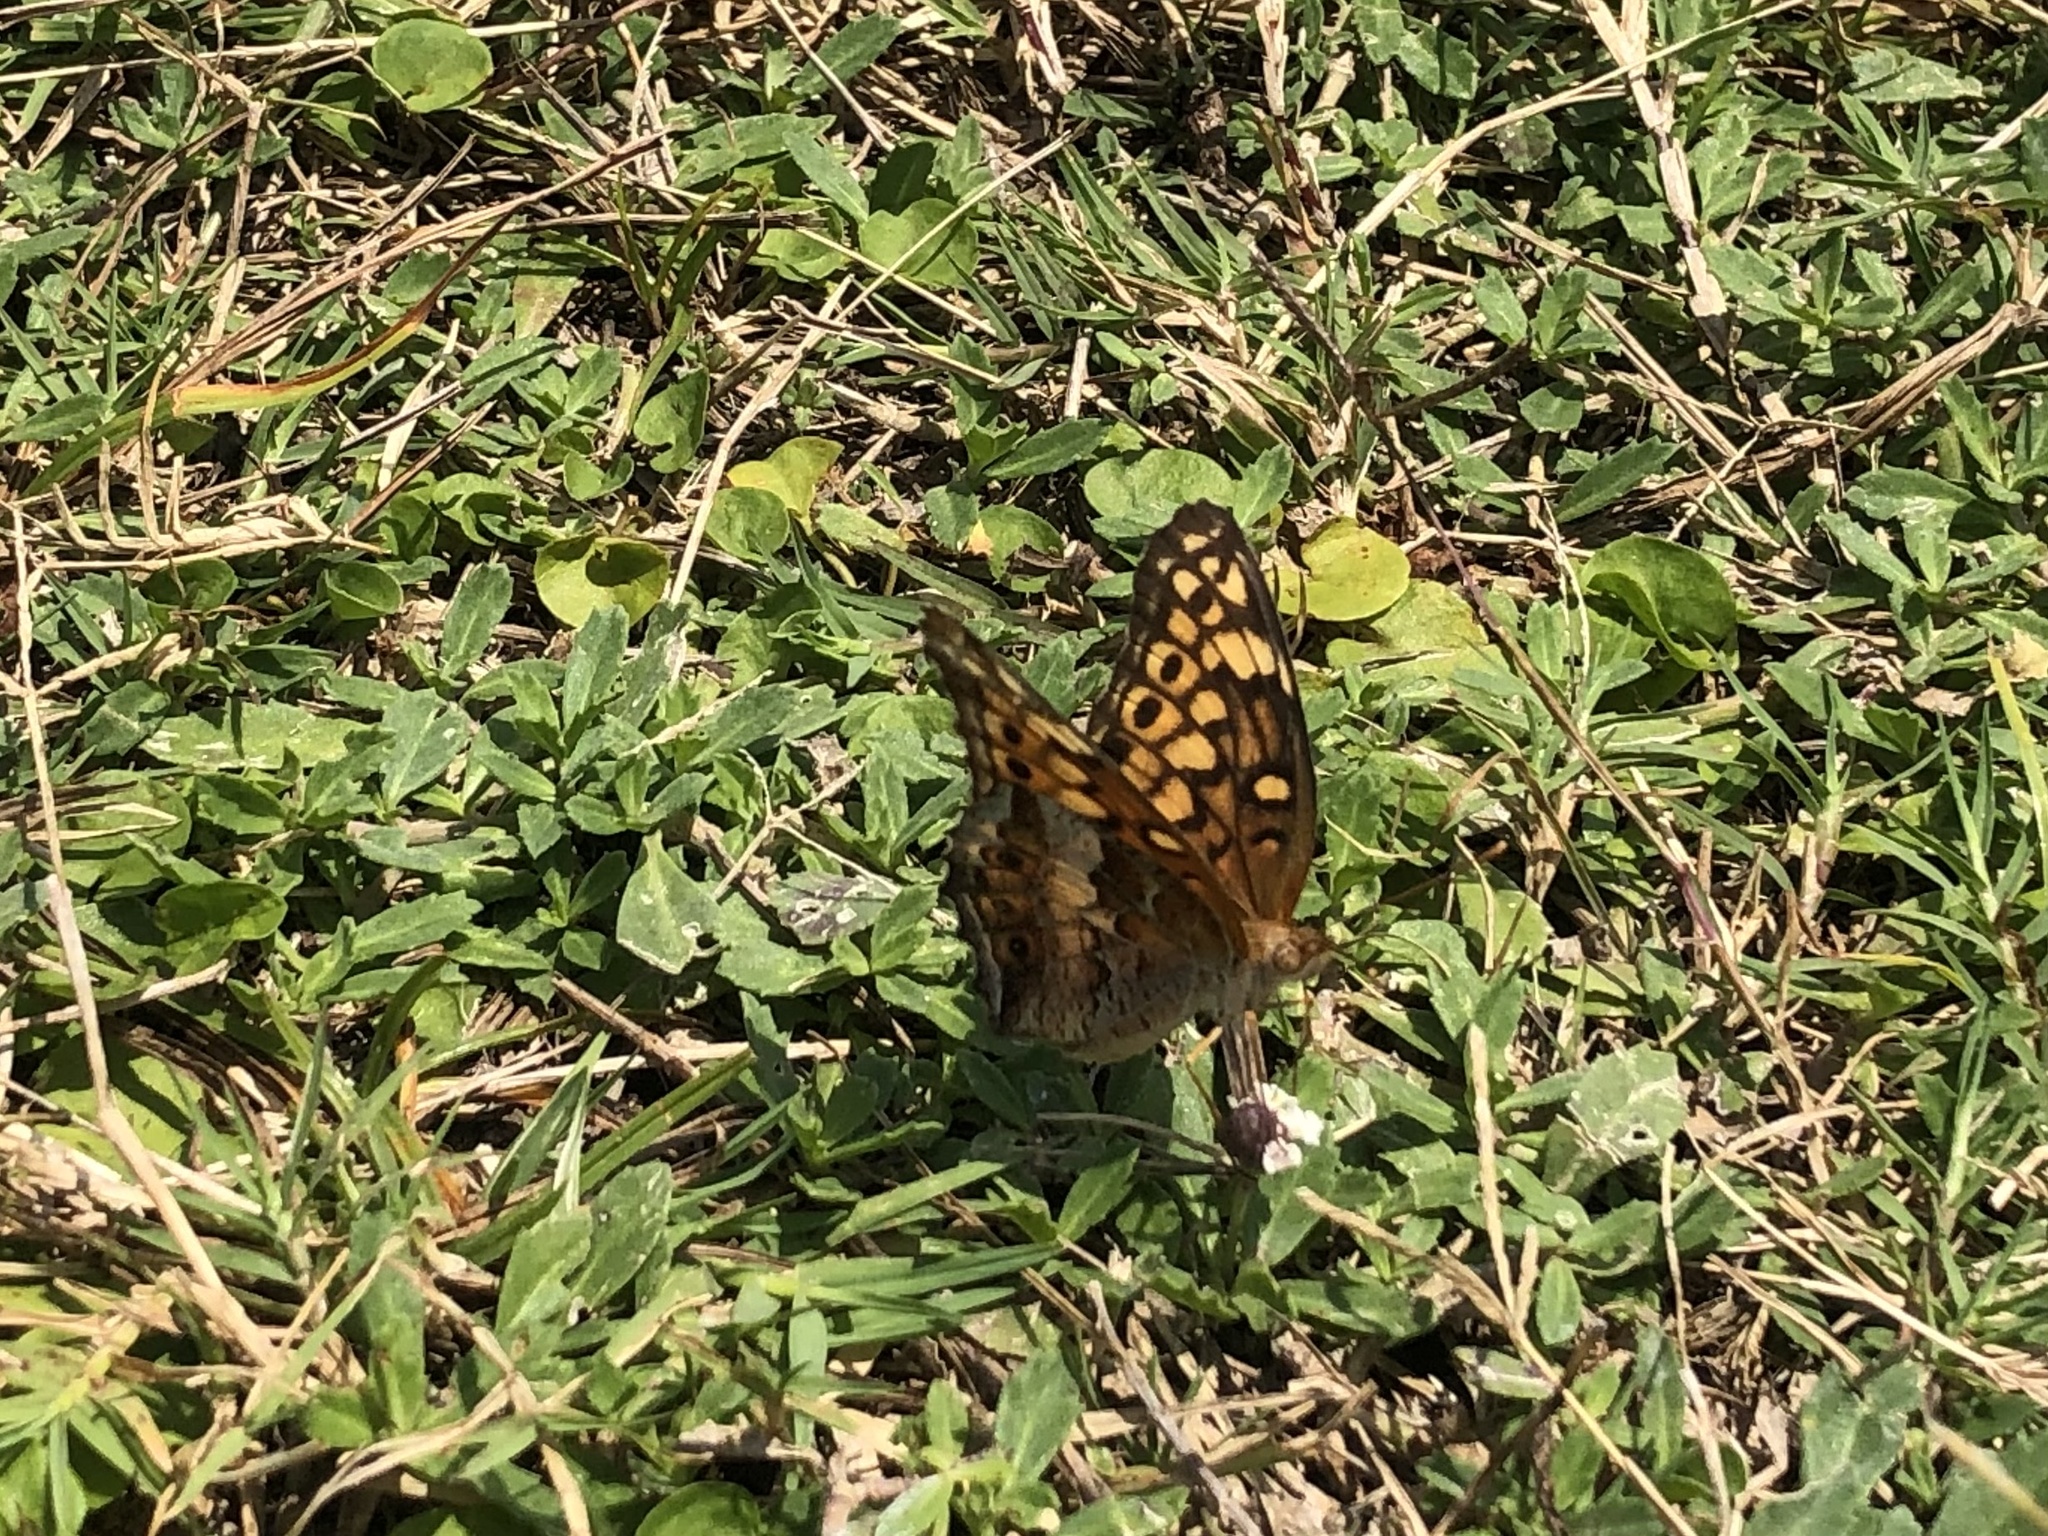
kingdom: Animalia
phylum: Arthropoda
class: Insecta
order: Lepidoptera
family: Nymphalidae
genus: Euptoieta
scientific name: Euptoieta claudia
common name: Variegated fritillary
